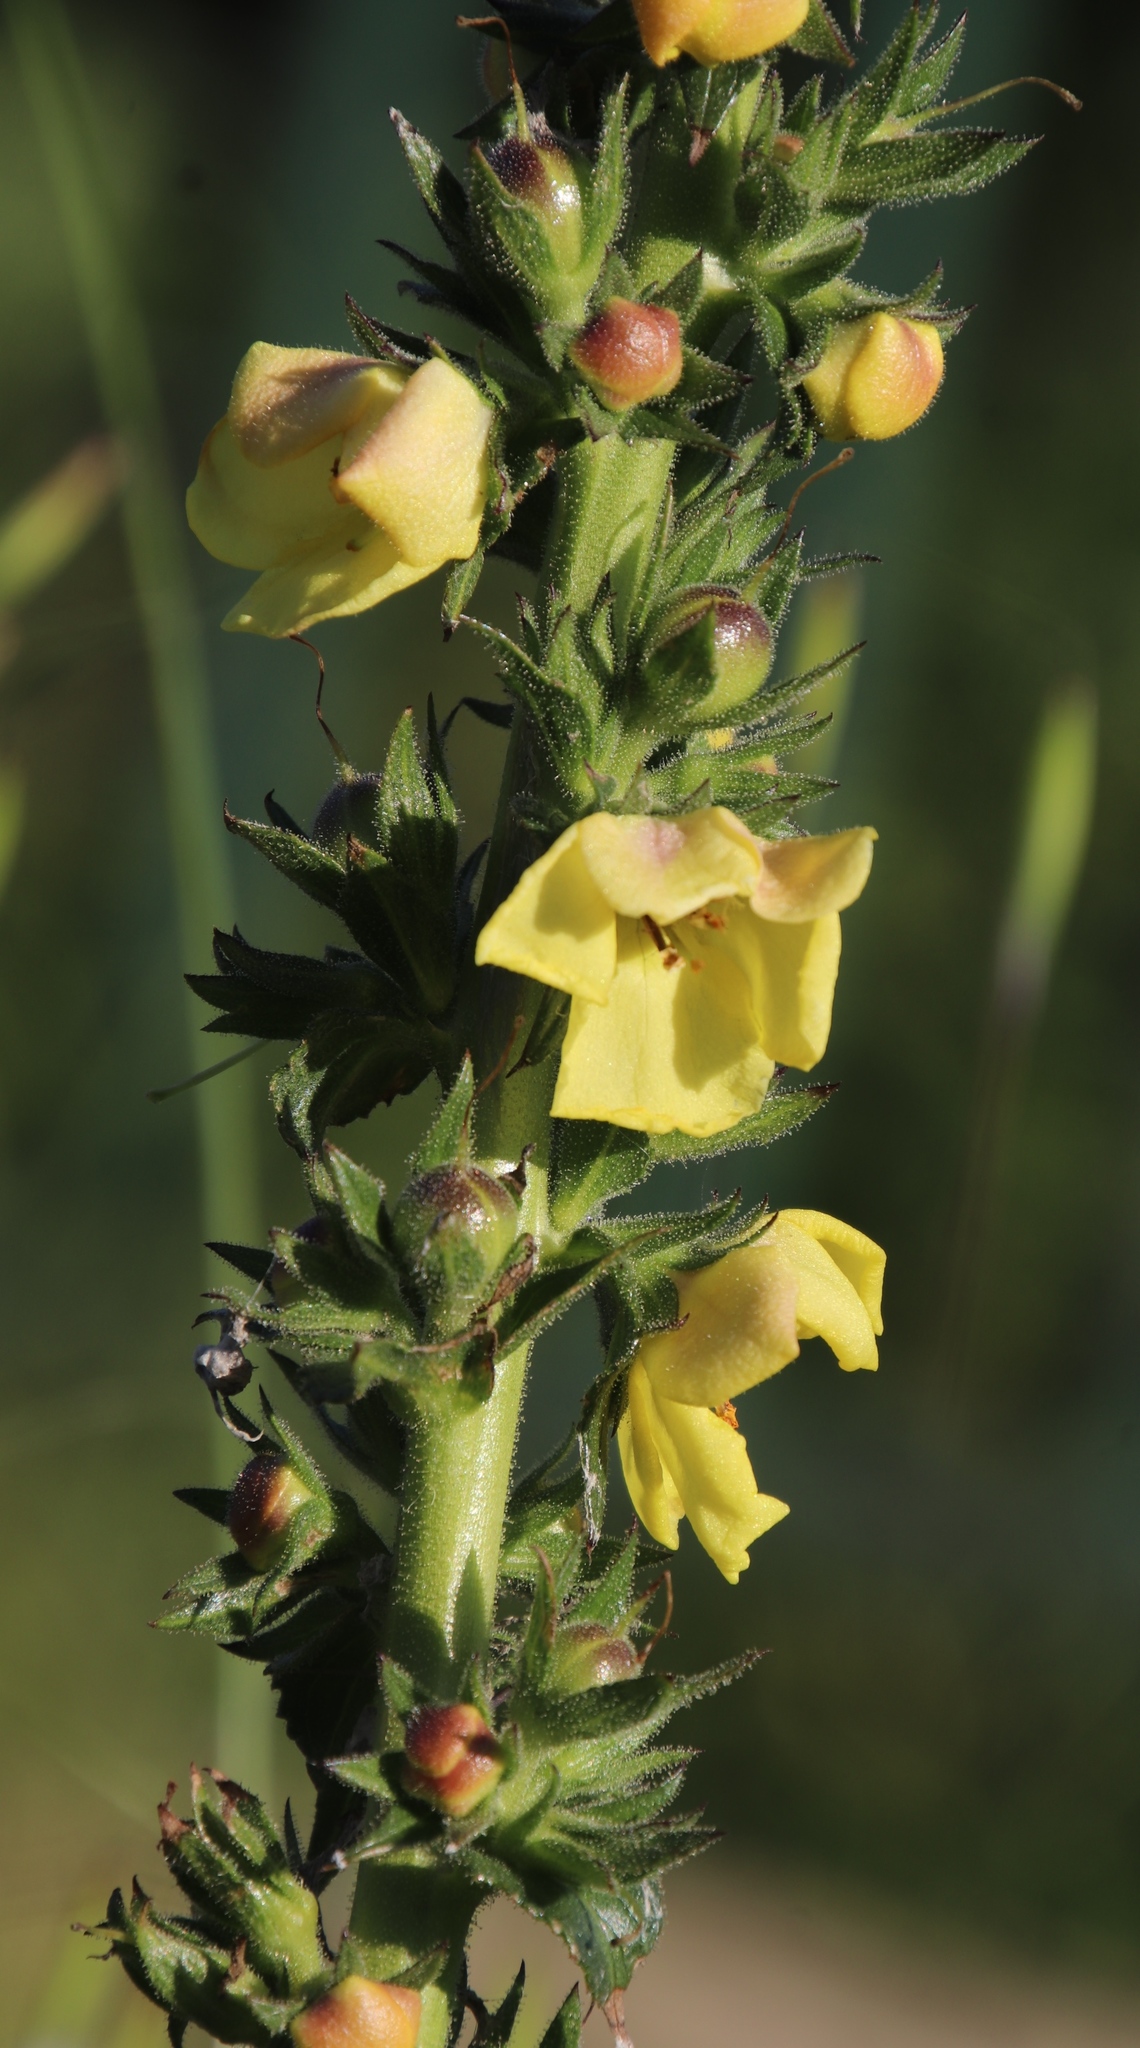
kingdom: Plantae
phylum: Tracheophyta
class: Magnoliopsida
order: Lamiales
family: Scrophulariaceae
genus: Verbascum
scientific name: Verbascum virgatum
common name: Twiggy mullein
